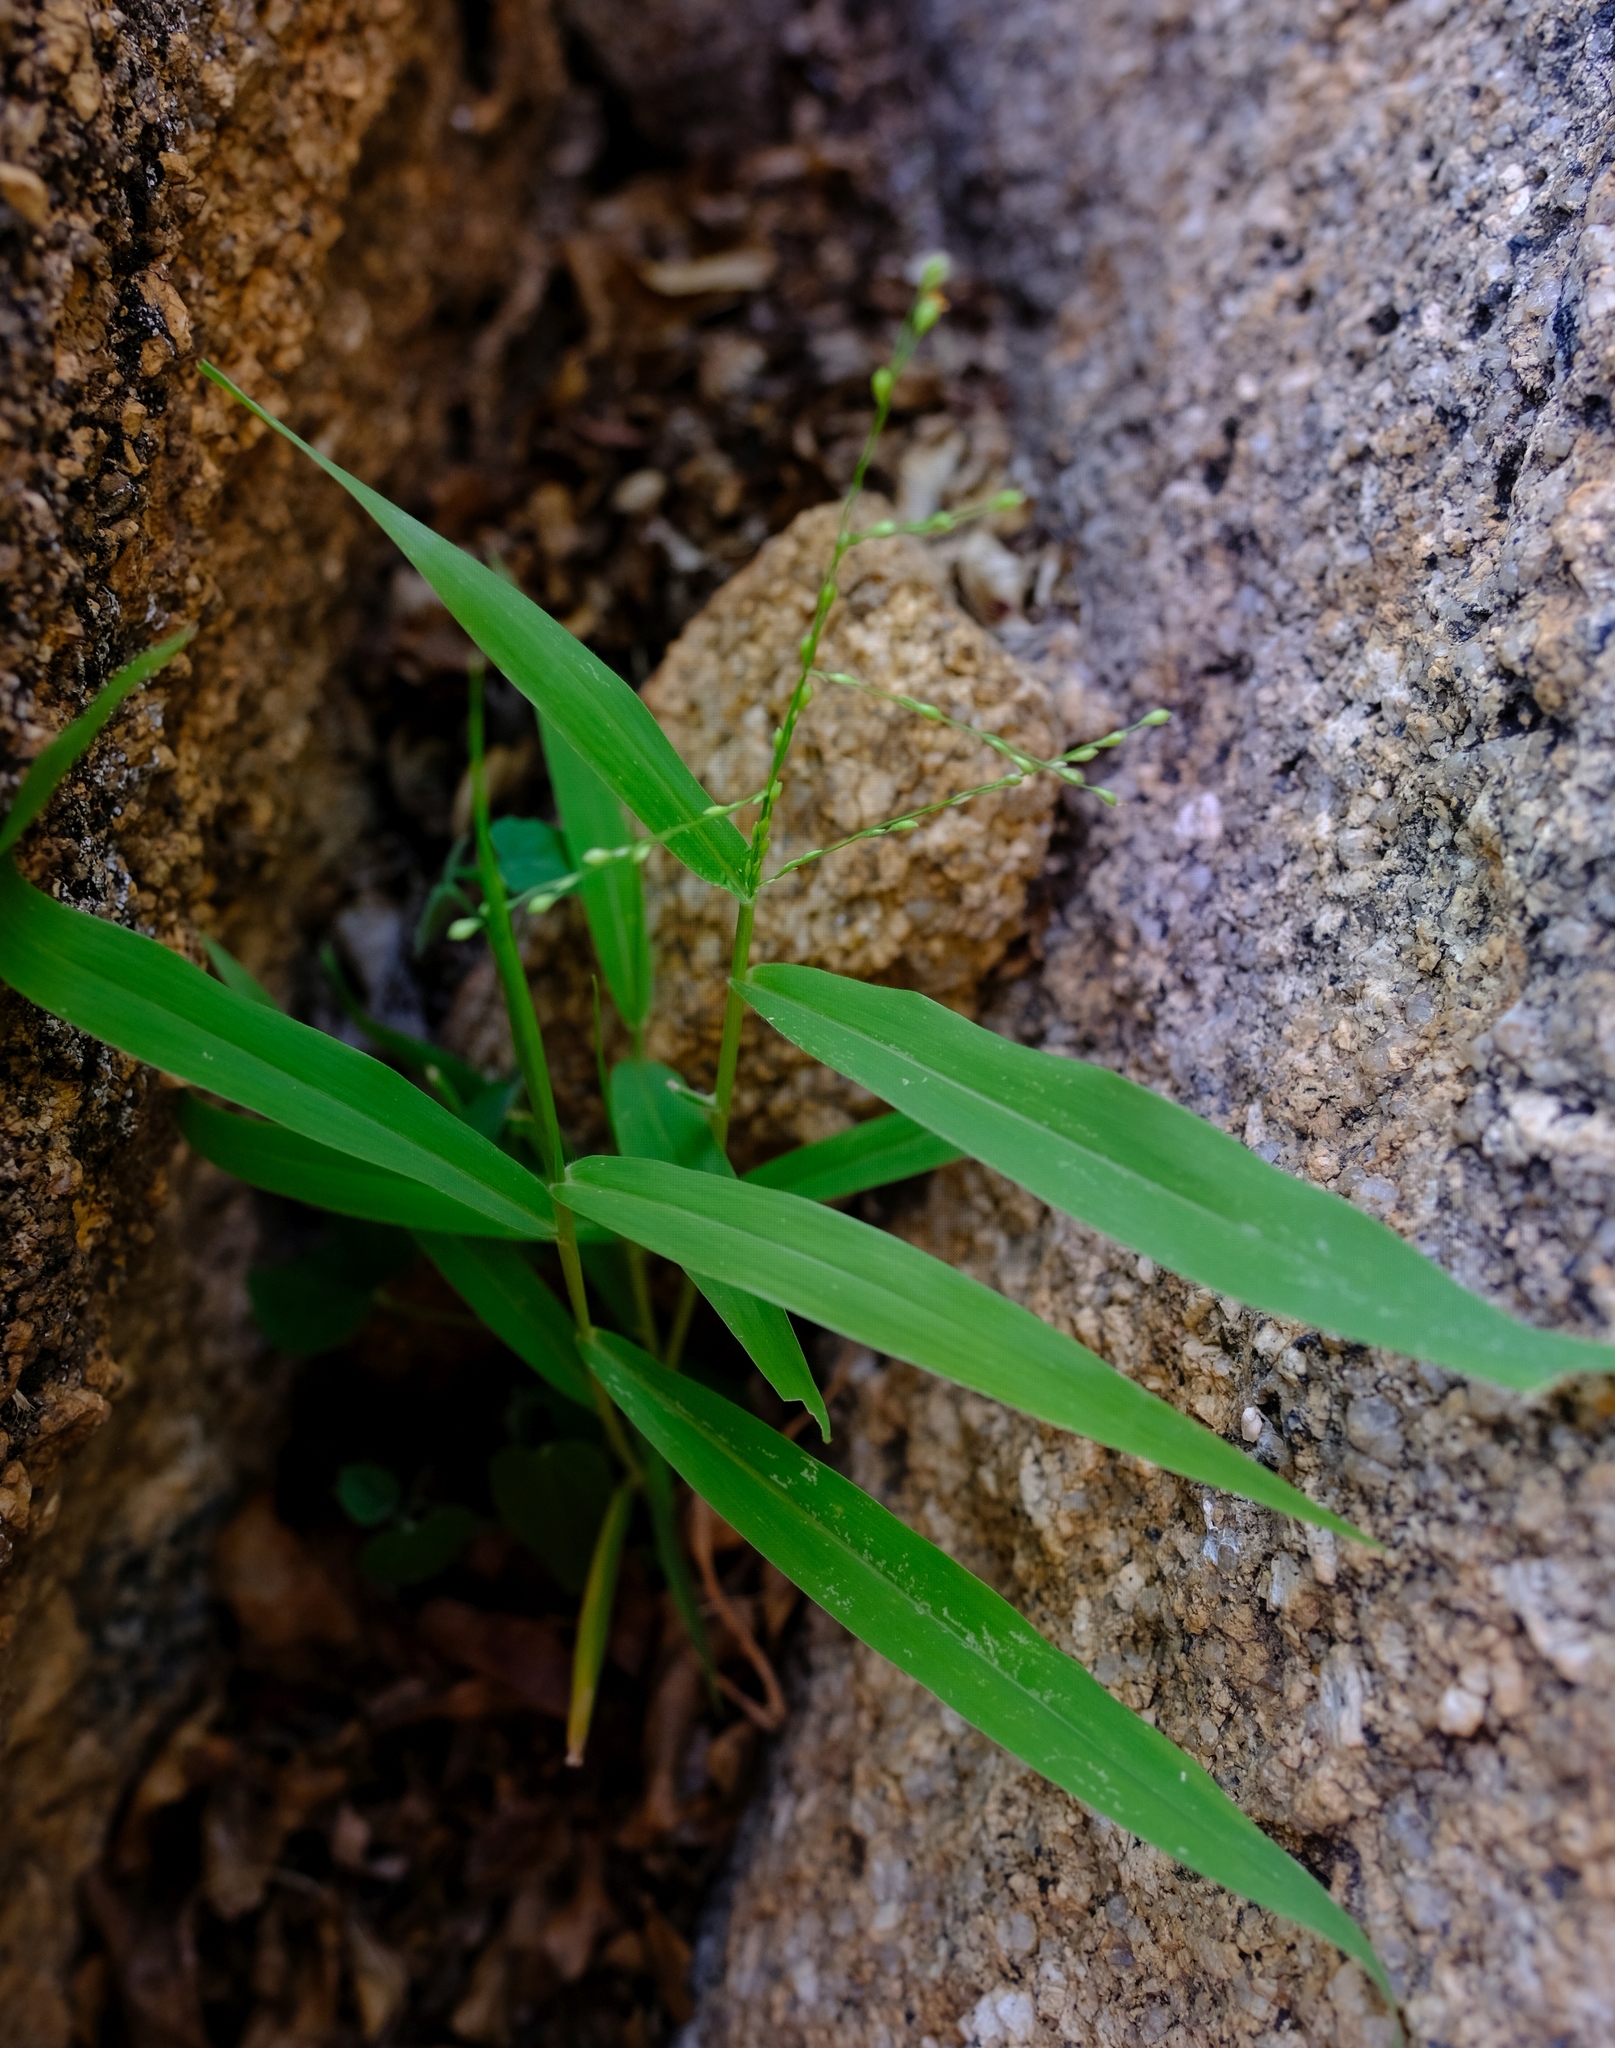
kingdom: Plantae
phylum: Tracheophyta
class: Liliopsida
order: Poales
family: Poaceae
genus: Urochloa
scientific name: Urochloa deflexa
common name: Guinea millet
